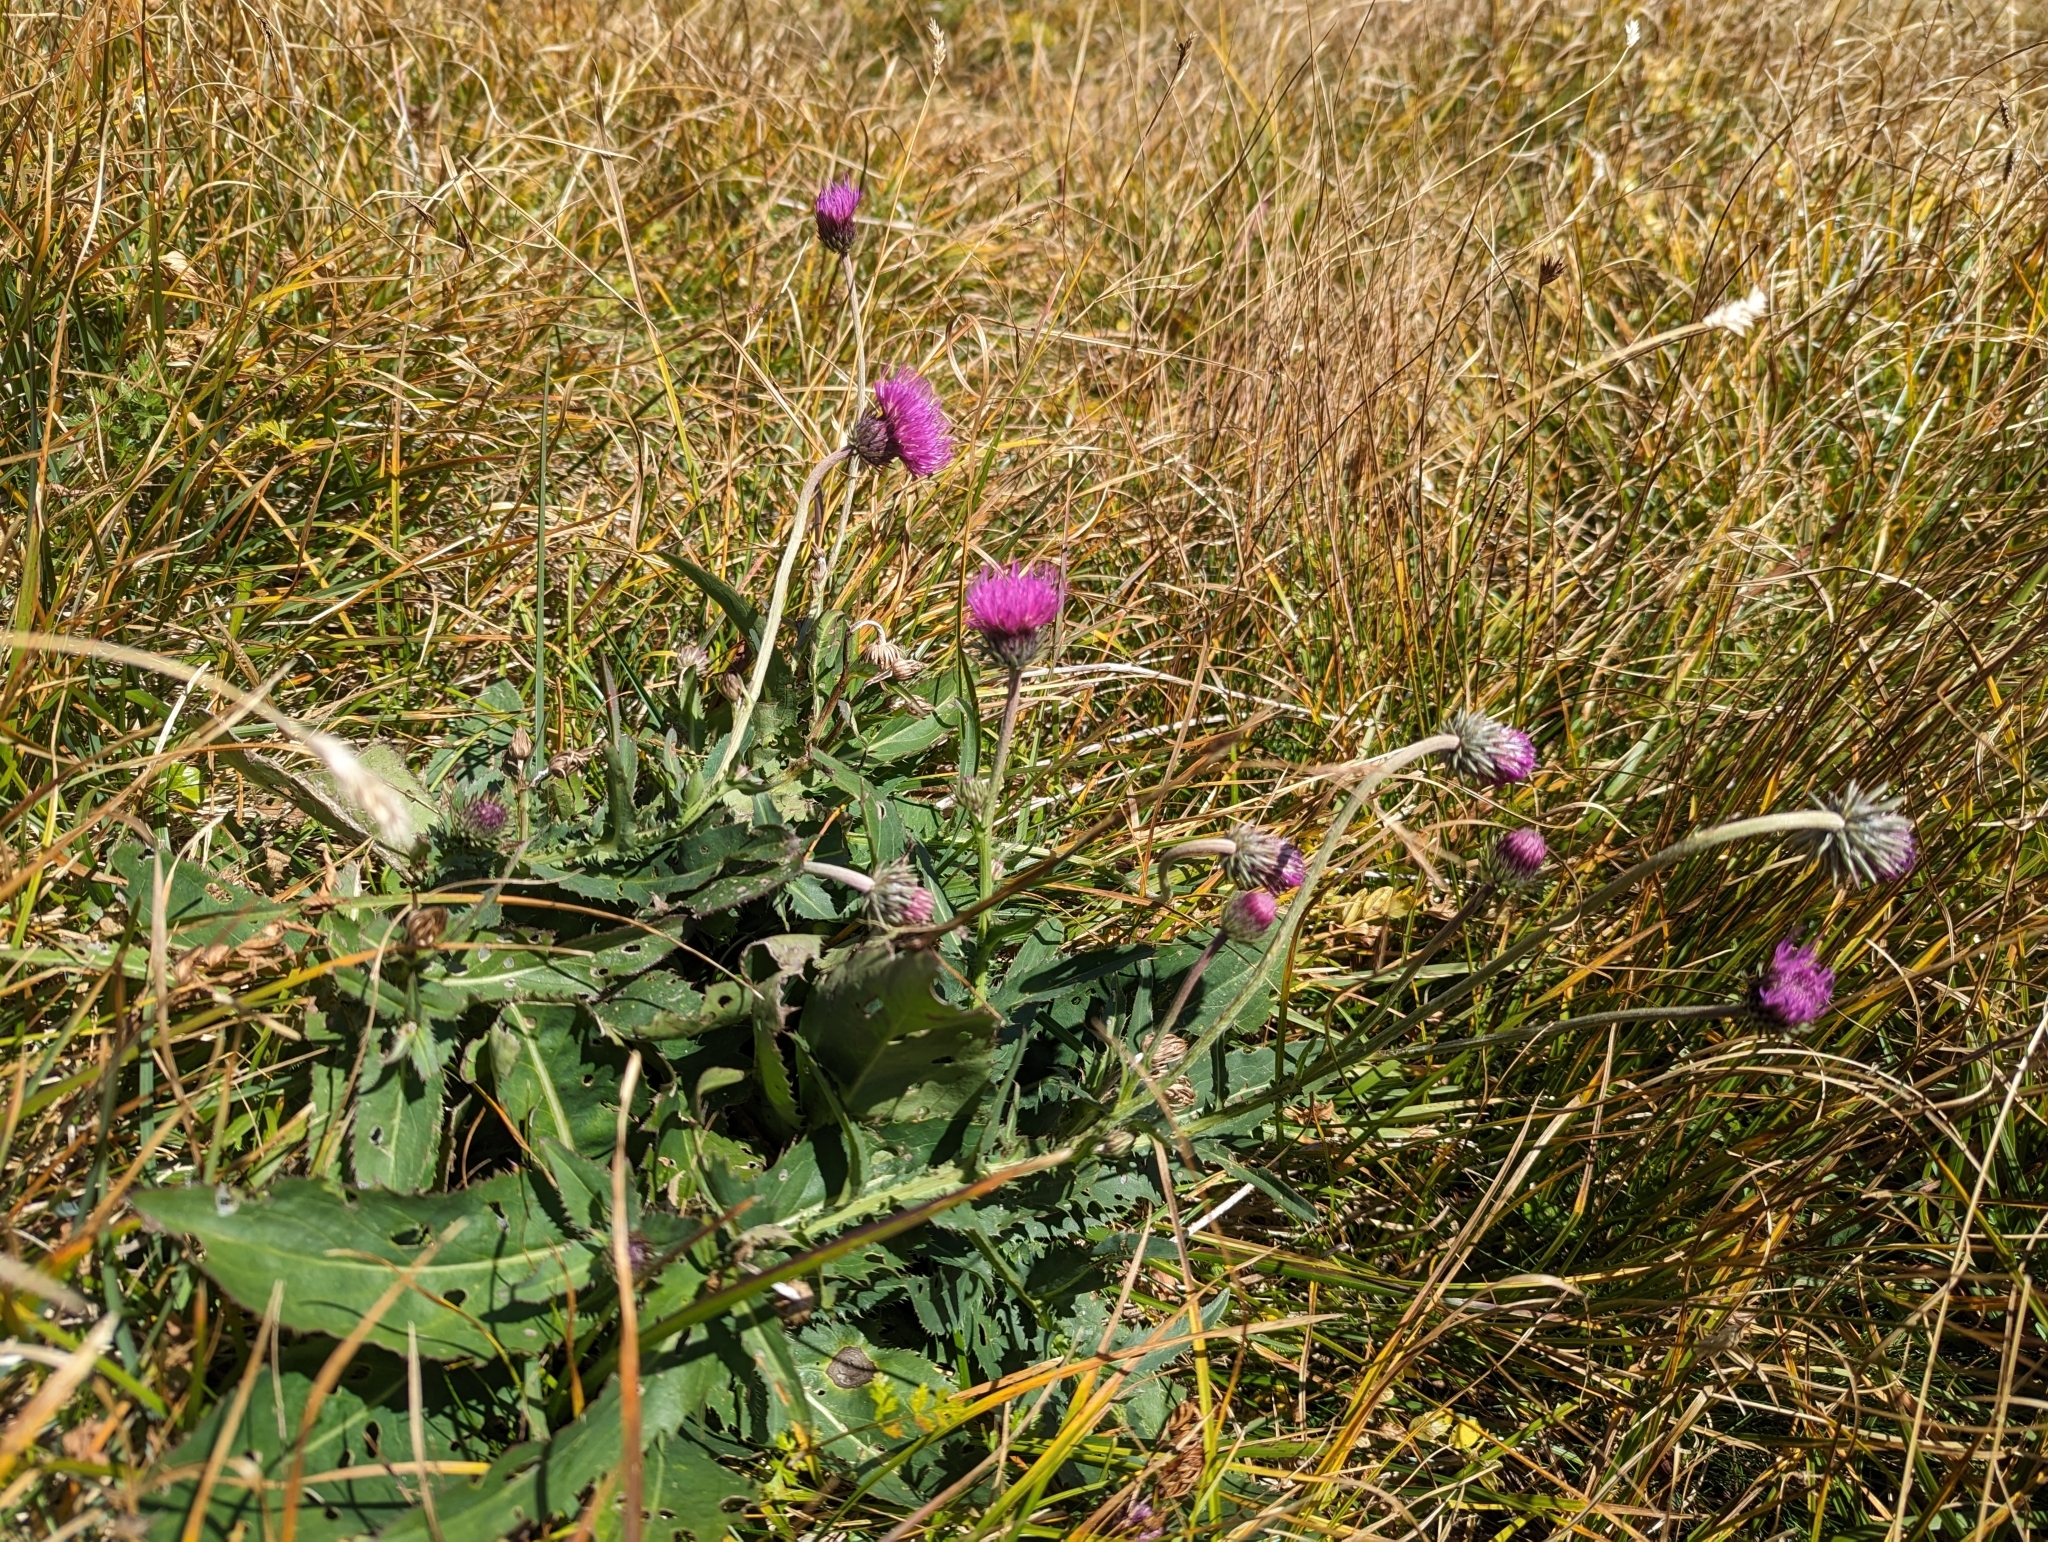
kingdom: Plantae
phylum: Tracheophyta
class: Magnoliopsida
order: Asterales
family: Asteraceae
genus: Carduus
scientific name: Carduus defloratus
